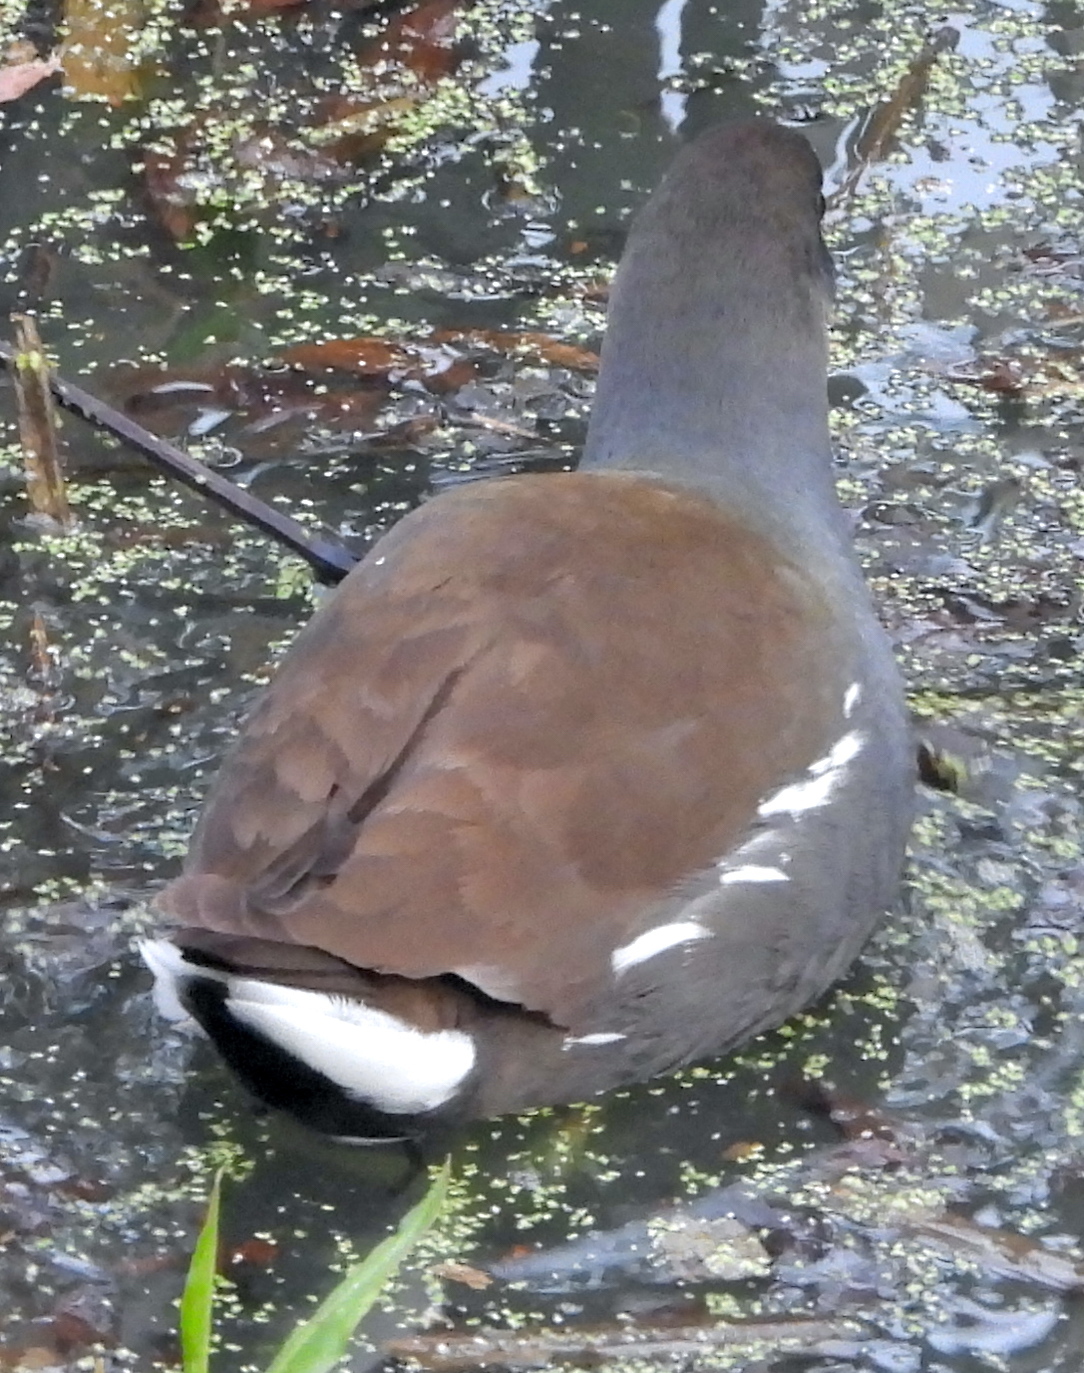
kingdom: Animalia
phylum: Chordata
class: Aves
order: Gruiformes
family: Rallidae
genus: Gallinula
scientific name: Gallinula chloropus
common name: Common moorhen
